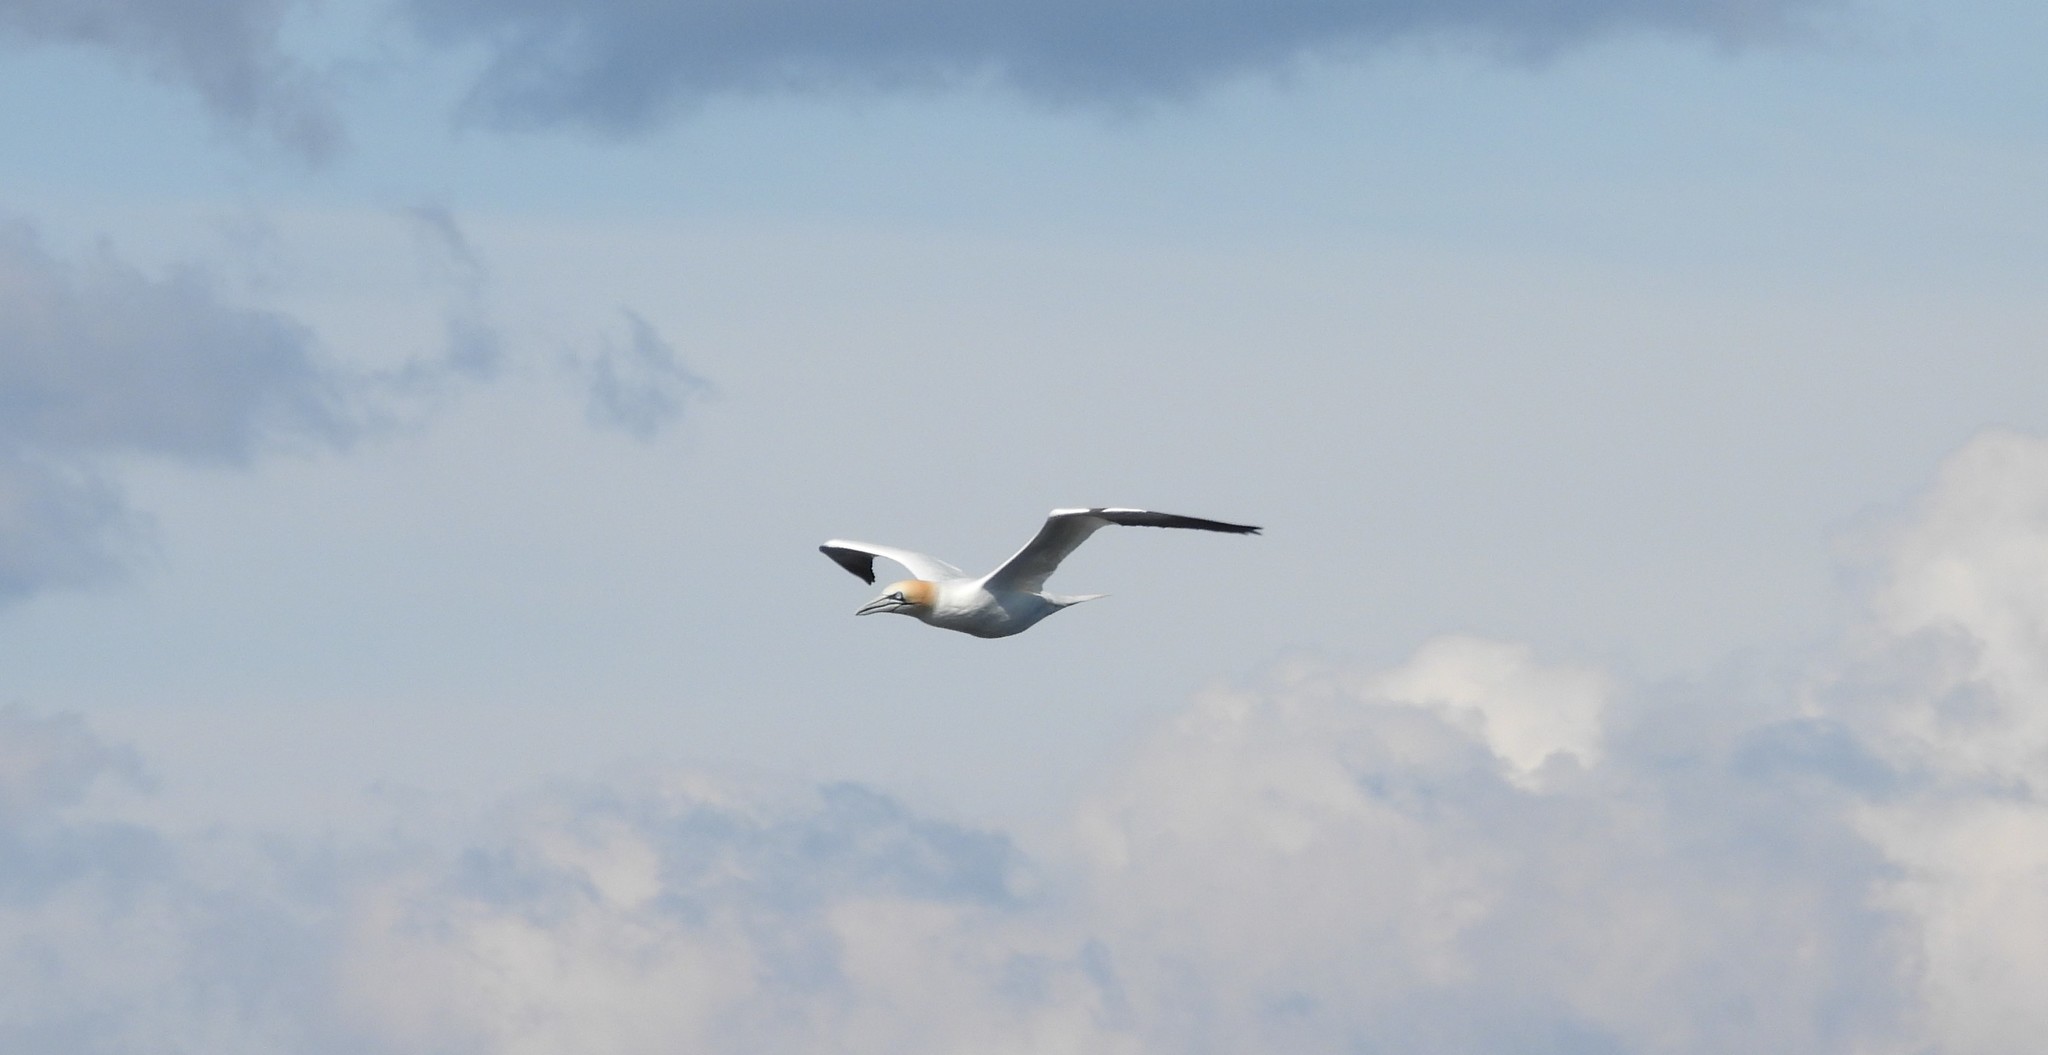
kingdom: Animalia
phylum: Chordata
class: Aves
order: Suliformes
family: Sulidae
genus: Morus
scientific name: Morus bassanus
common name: Northern gannet
